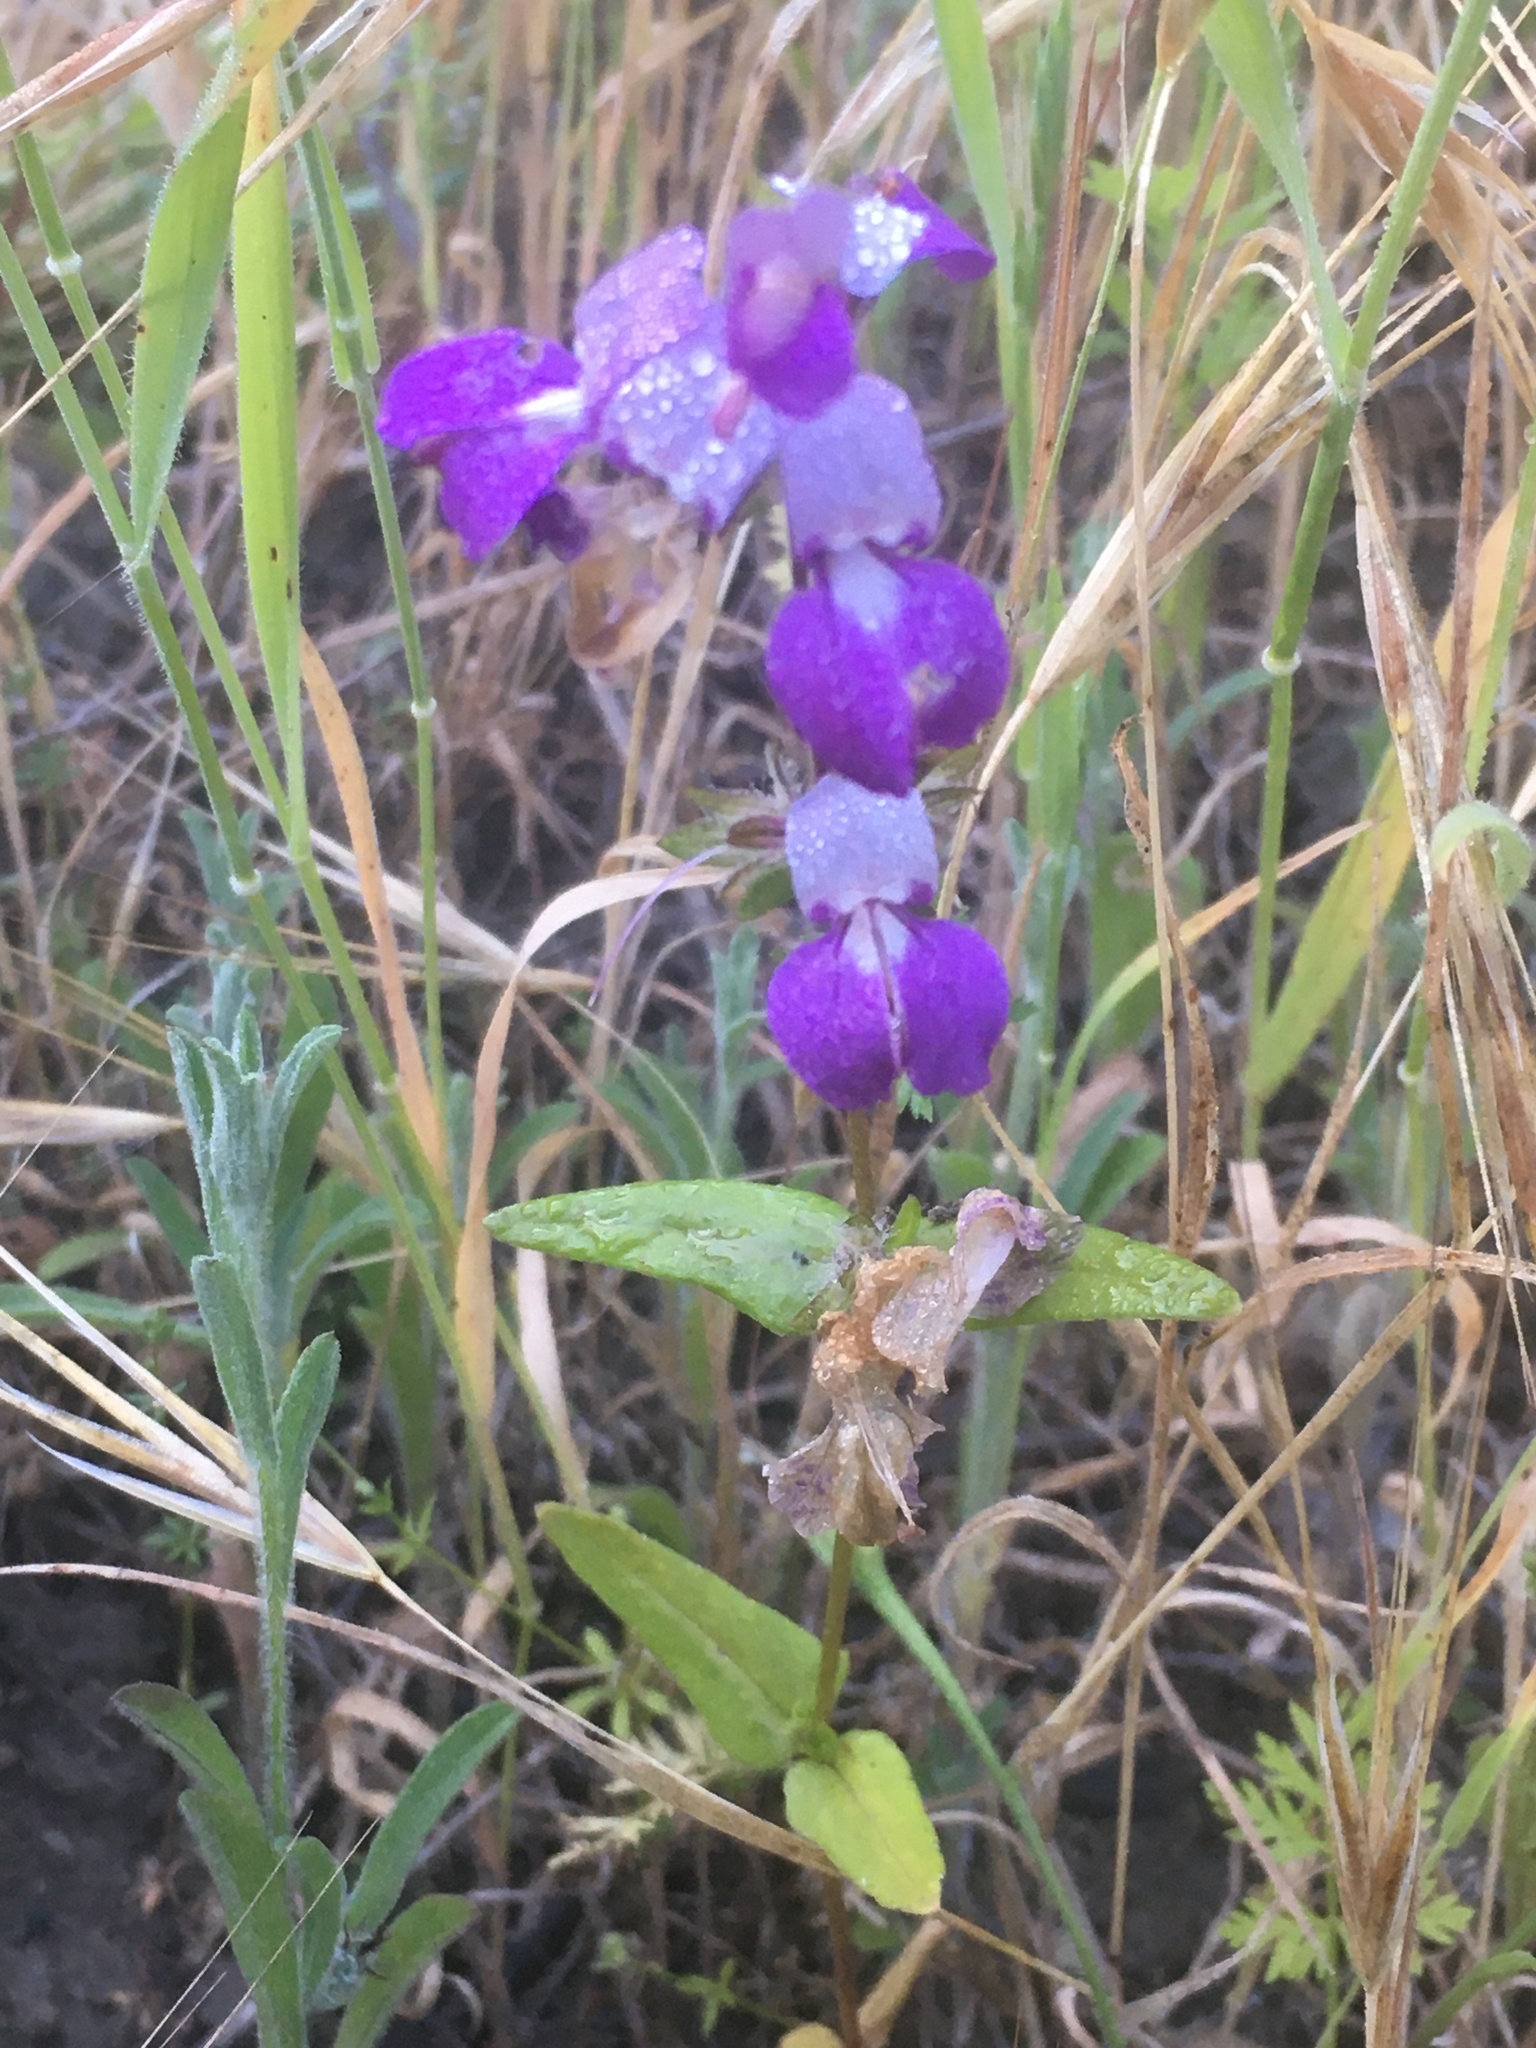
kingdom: Plantae
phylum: Tracheophyta
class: Magnoliopsida
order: Lamiales
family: Plantaginaceae
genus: Collinsia
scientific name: Collinsia heterophylla
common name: Chinese-houses
